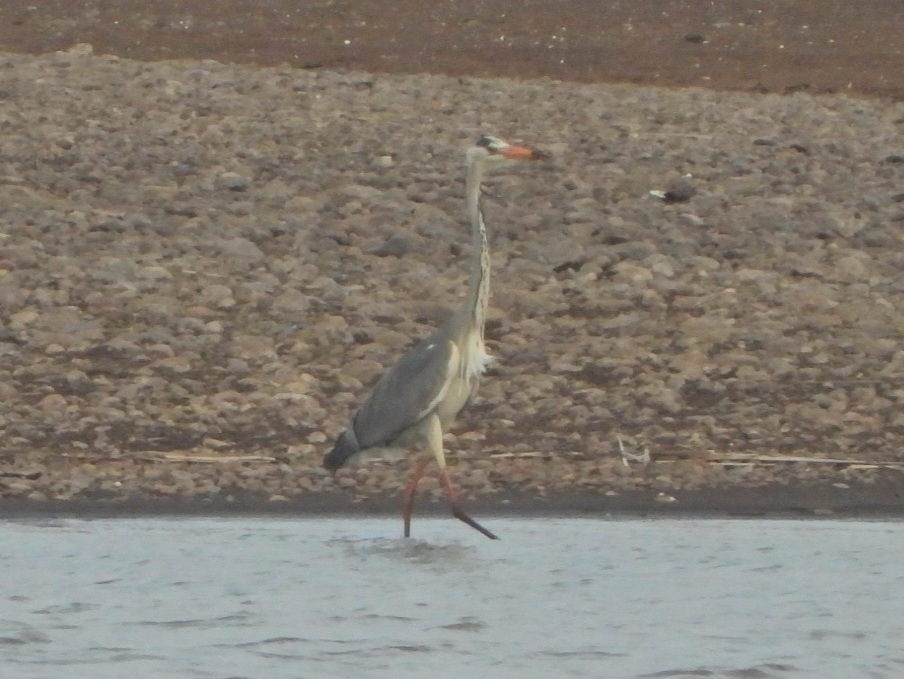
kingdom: Animalia
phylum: Chordata
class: Aves
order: Pelecaniformes
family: Ardeidae
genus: Ardea
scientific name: Ardea cinerea
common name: Grey heron
